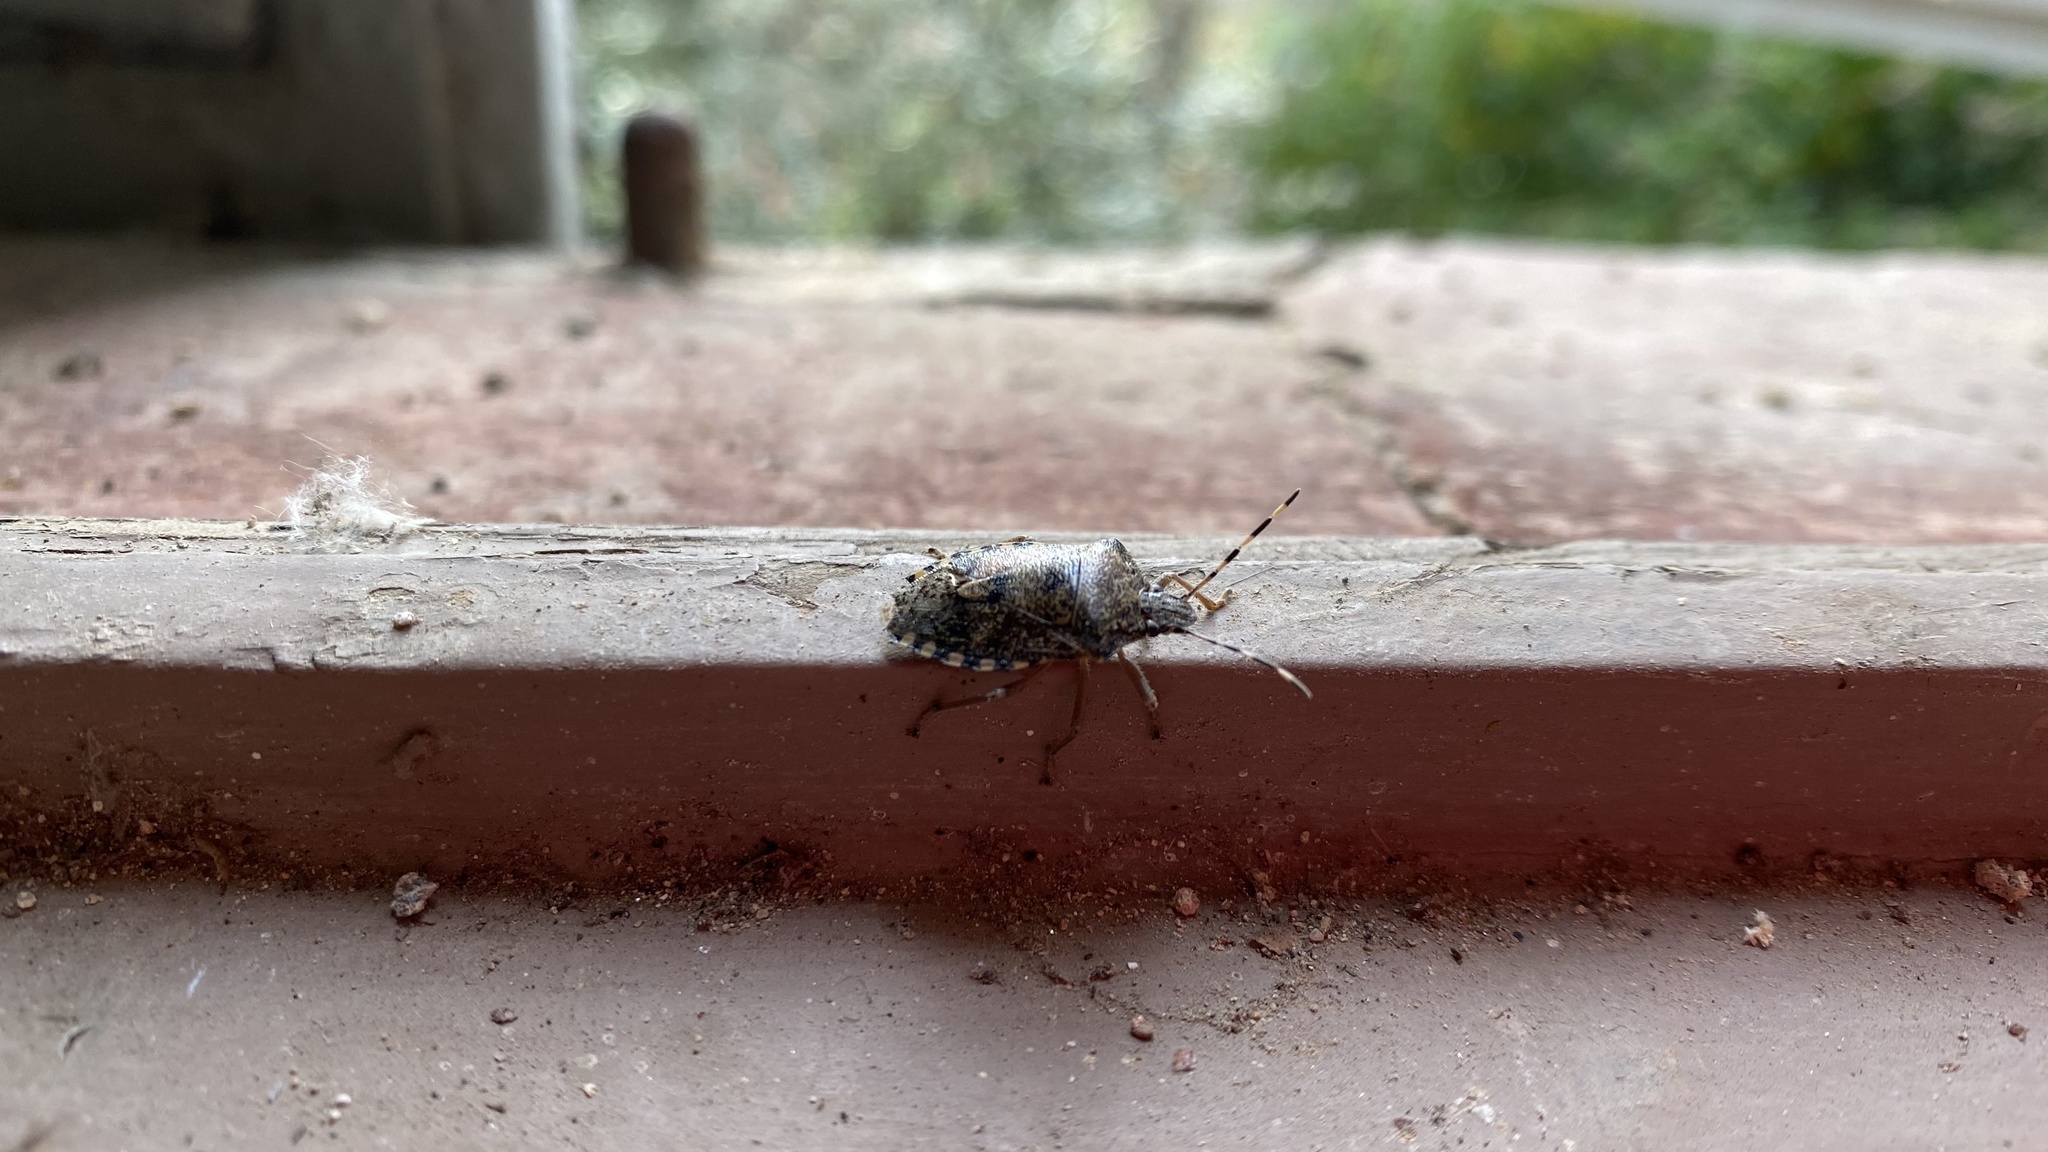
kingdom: Animalia
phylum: Arthropoda
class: Insecta
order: Hemiptera
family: Pentatomidae
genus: Rhaphigaster
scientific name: Rhaphigaster nebulosa
